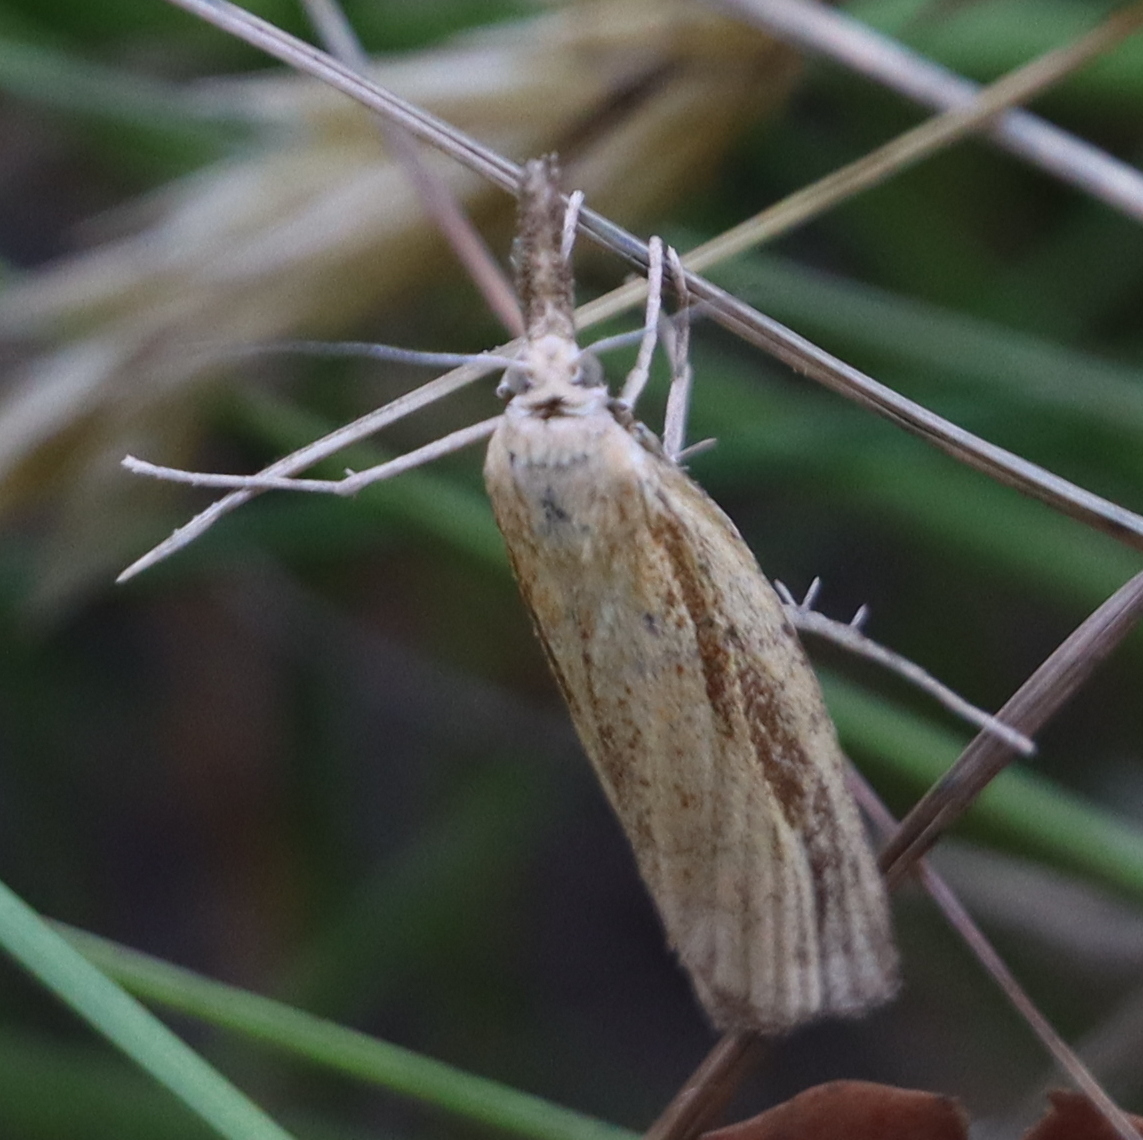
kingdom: Animalia
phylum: Arthropoda
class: Insecta
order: Lepidoptera
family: Crambidae
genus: Agriphila
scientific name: Agriphila straminella
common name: Straw grass-veneer
